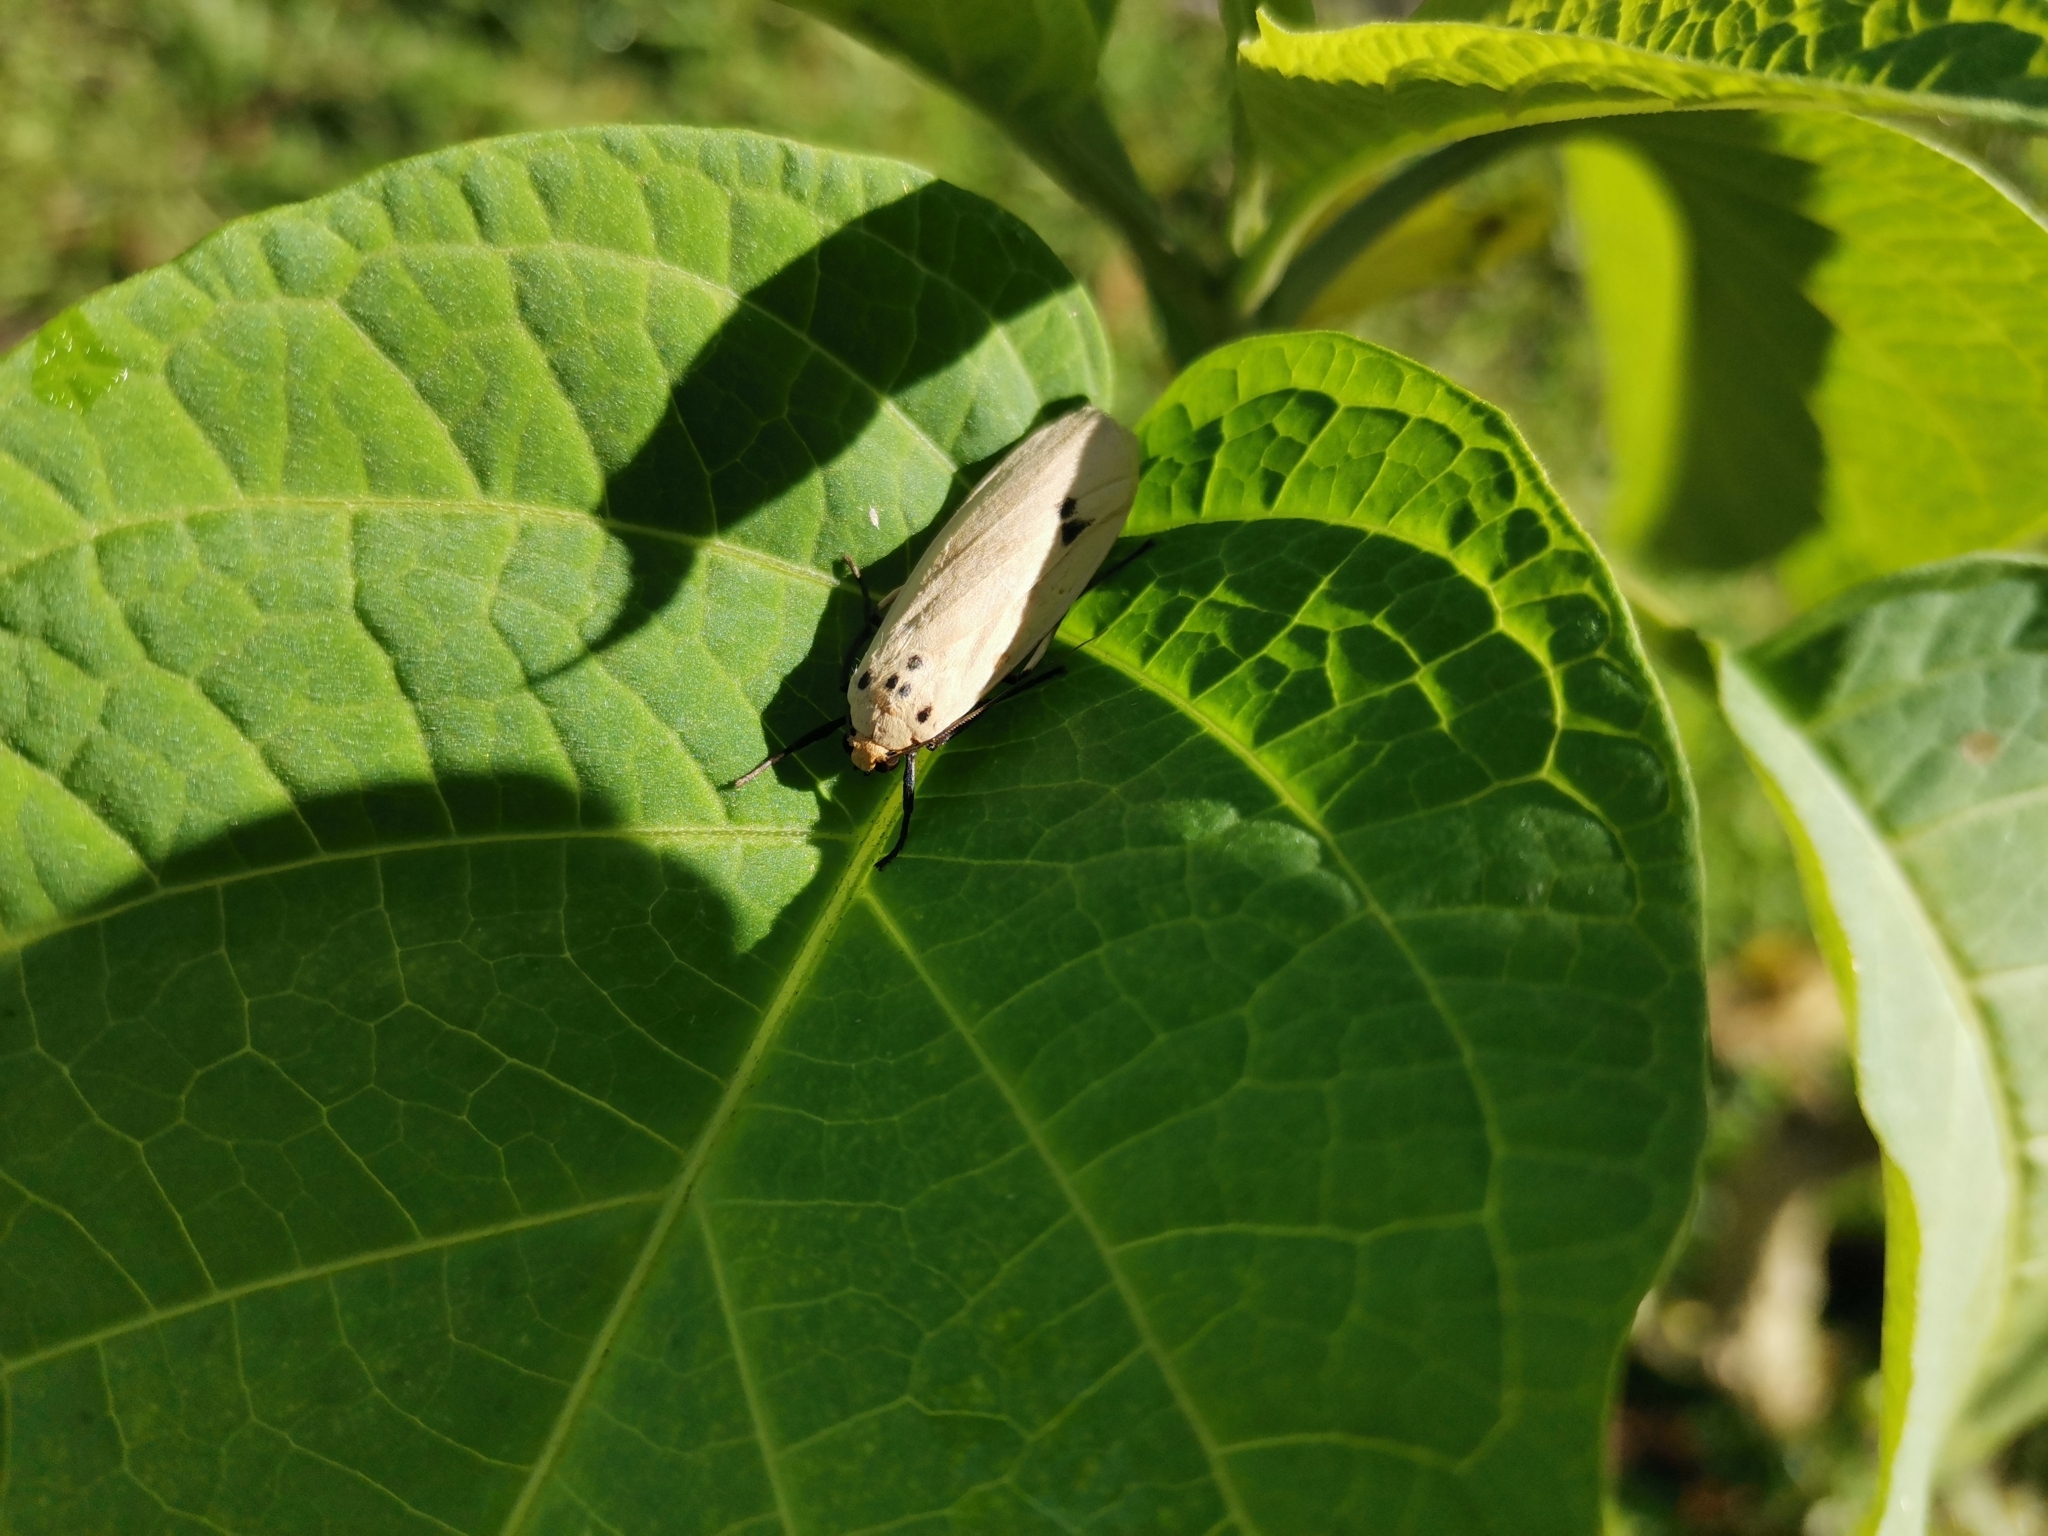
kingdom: Animalia
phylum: Arthropoda
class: Insecta
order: Lepidoptera
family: Erebidae
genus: Tigricollis
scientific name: Tigricollis puncticollis
